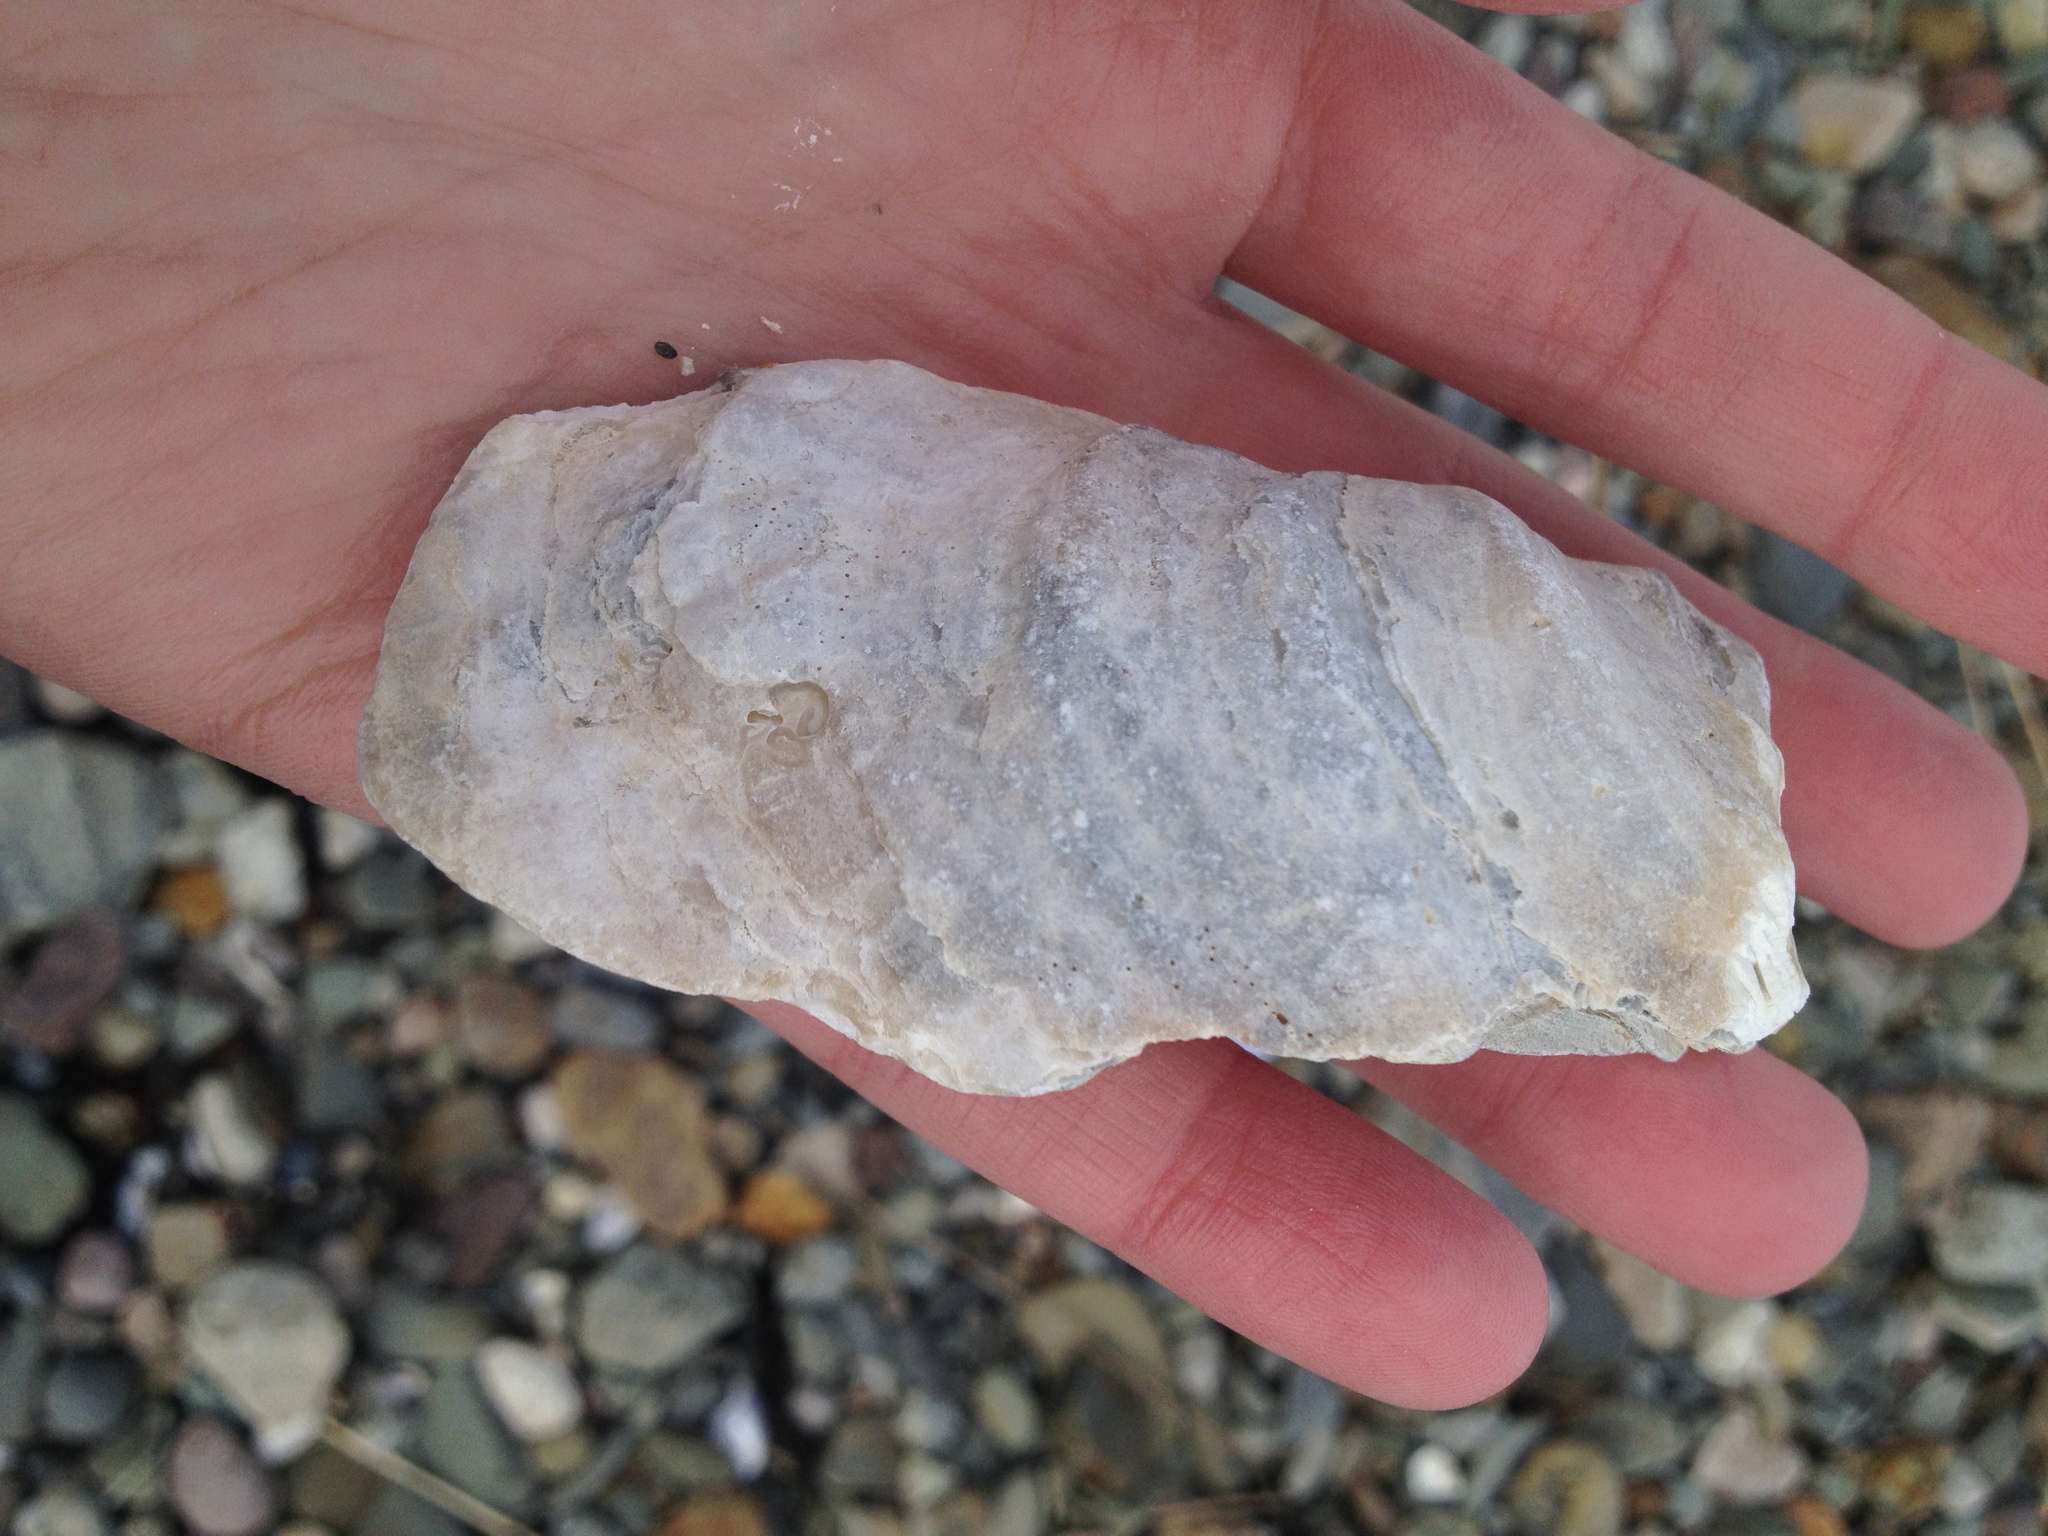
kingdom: Animalia
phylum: Mollusca
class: Bivalvia
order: Ostreida
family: Ostreidae
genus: Crassostrea
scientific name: Crassostrea virginica
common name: American oyster
